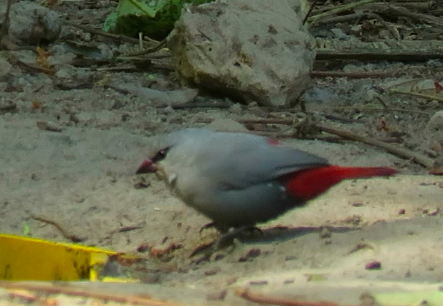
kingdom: Animalia
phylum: Chordata
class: Aves
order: Passeriformes
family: Estrildidae
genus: Estrilda
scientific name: Estrilda caerulescens
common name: Lavender waxbill
